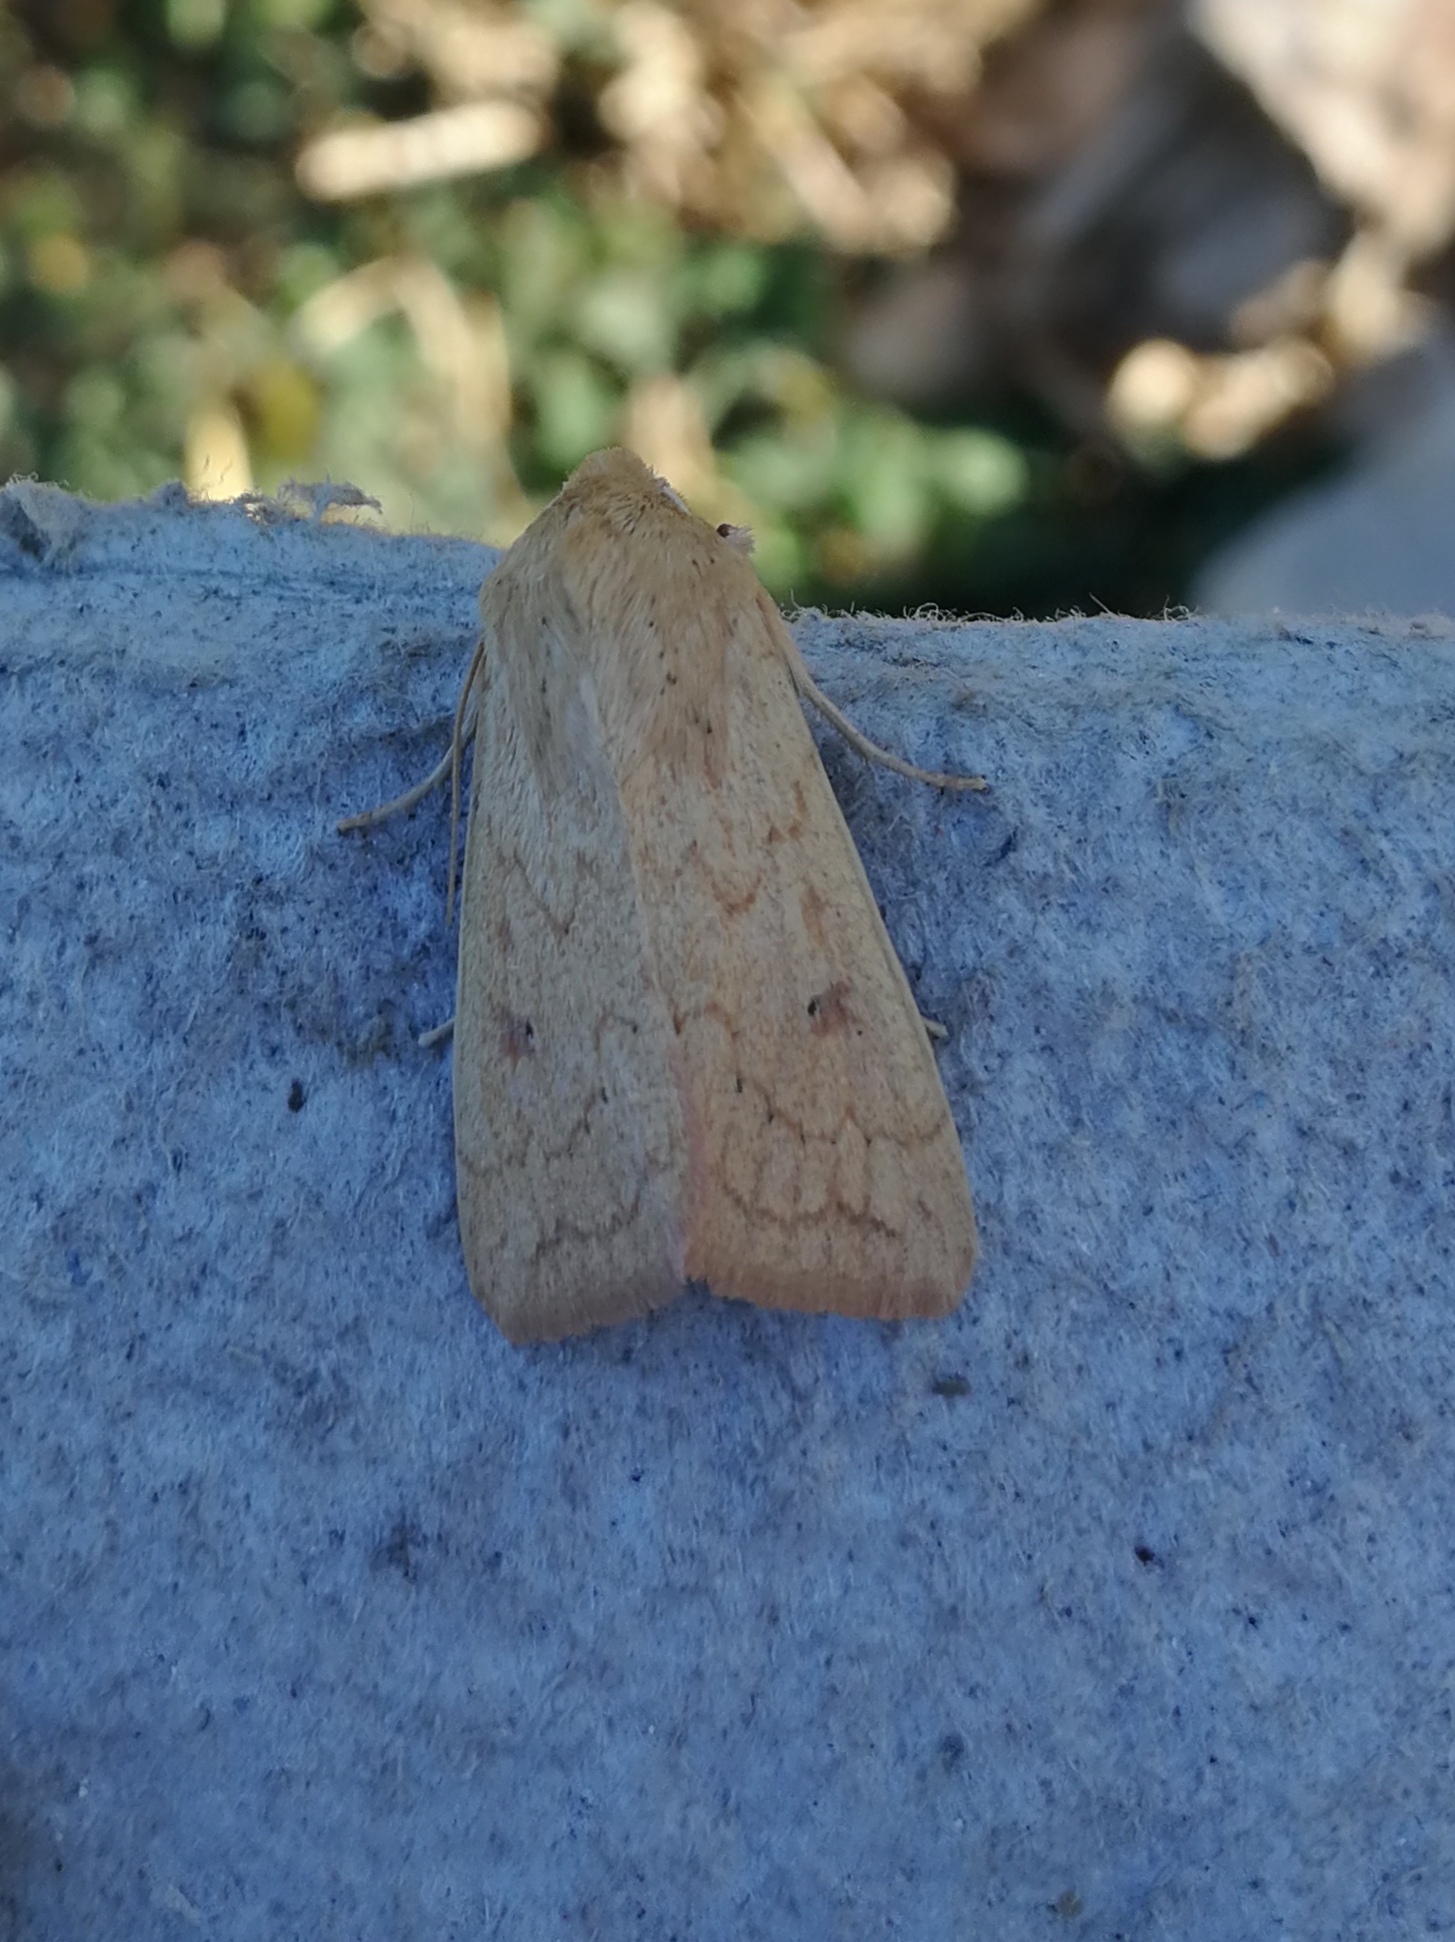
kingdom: Animalia
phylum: Arthropoda
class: Insecta
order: Lepidoptera
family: Noctuidae
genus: Mythimna
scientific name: Mythimna vitellina
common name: Delicate
